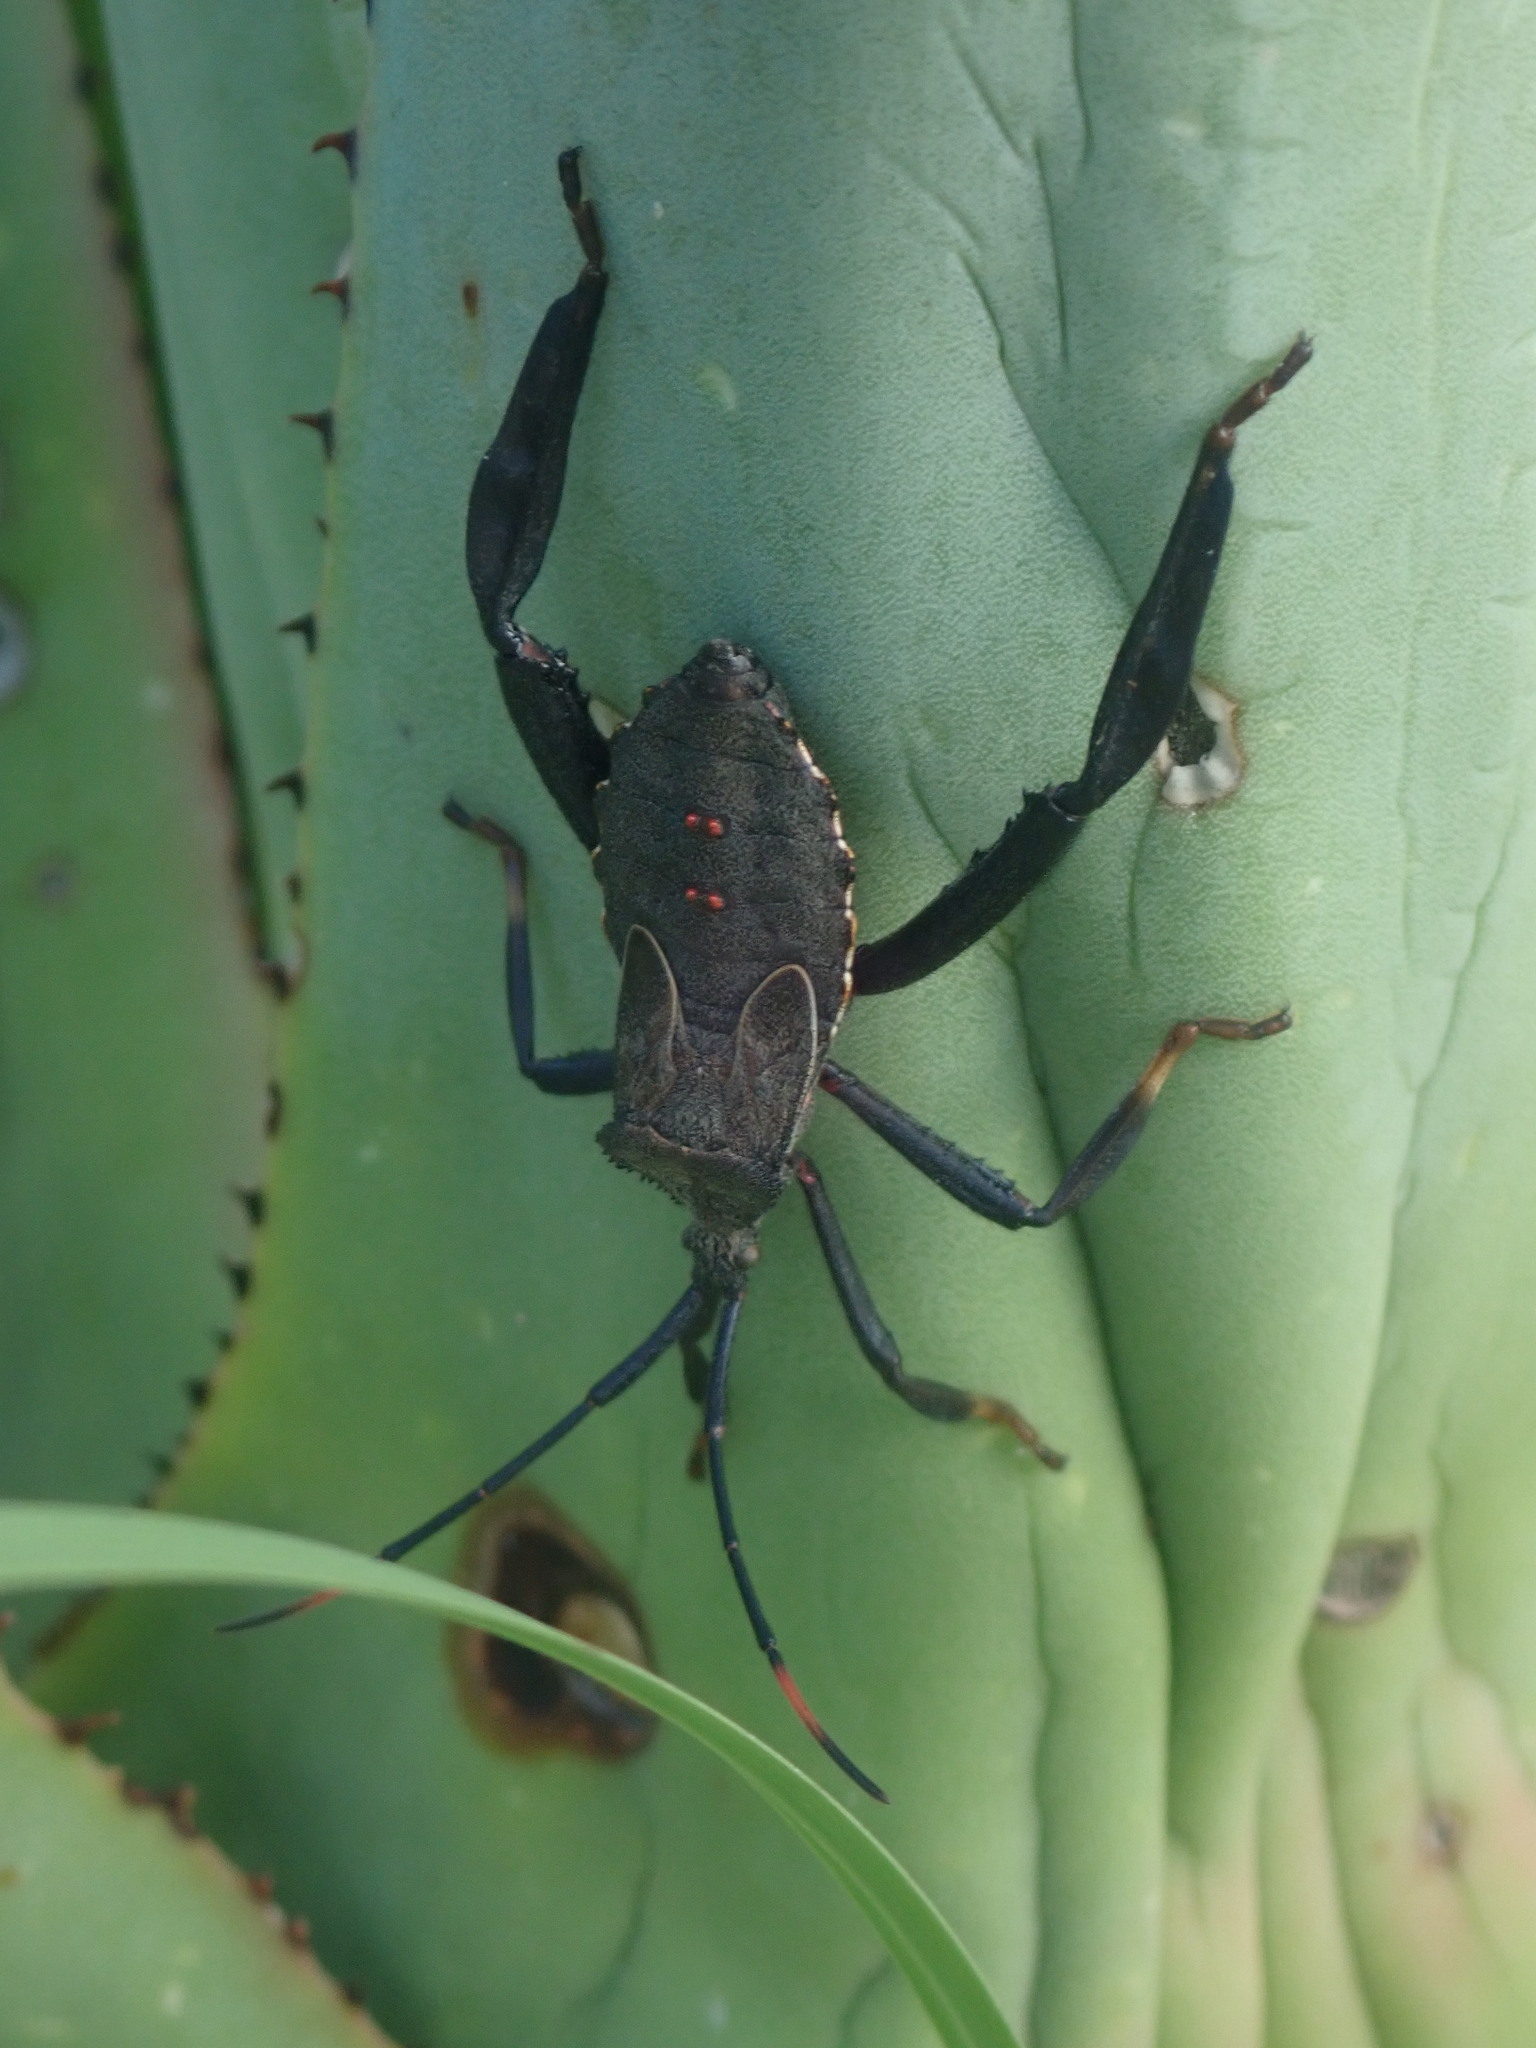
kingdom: Animalia
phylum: Arthropoda
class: Insecta
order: Hemiptera
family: Coreidae
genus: Acanthocephala
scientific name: Acanthocephala thomasi
